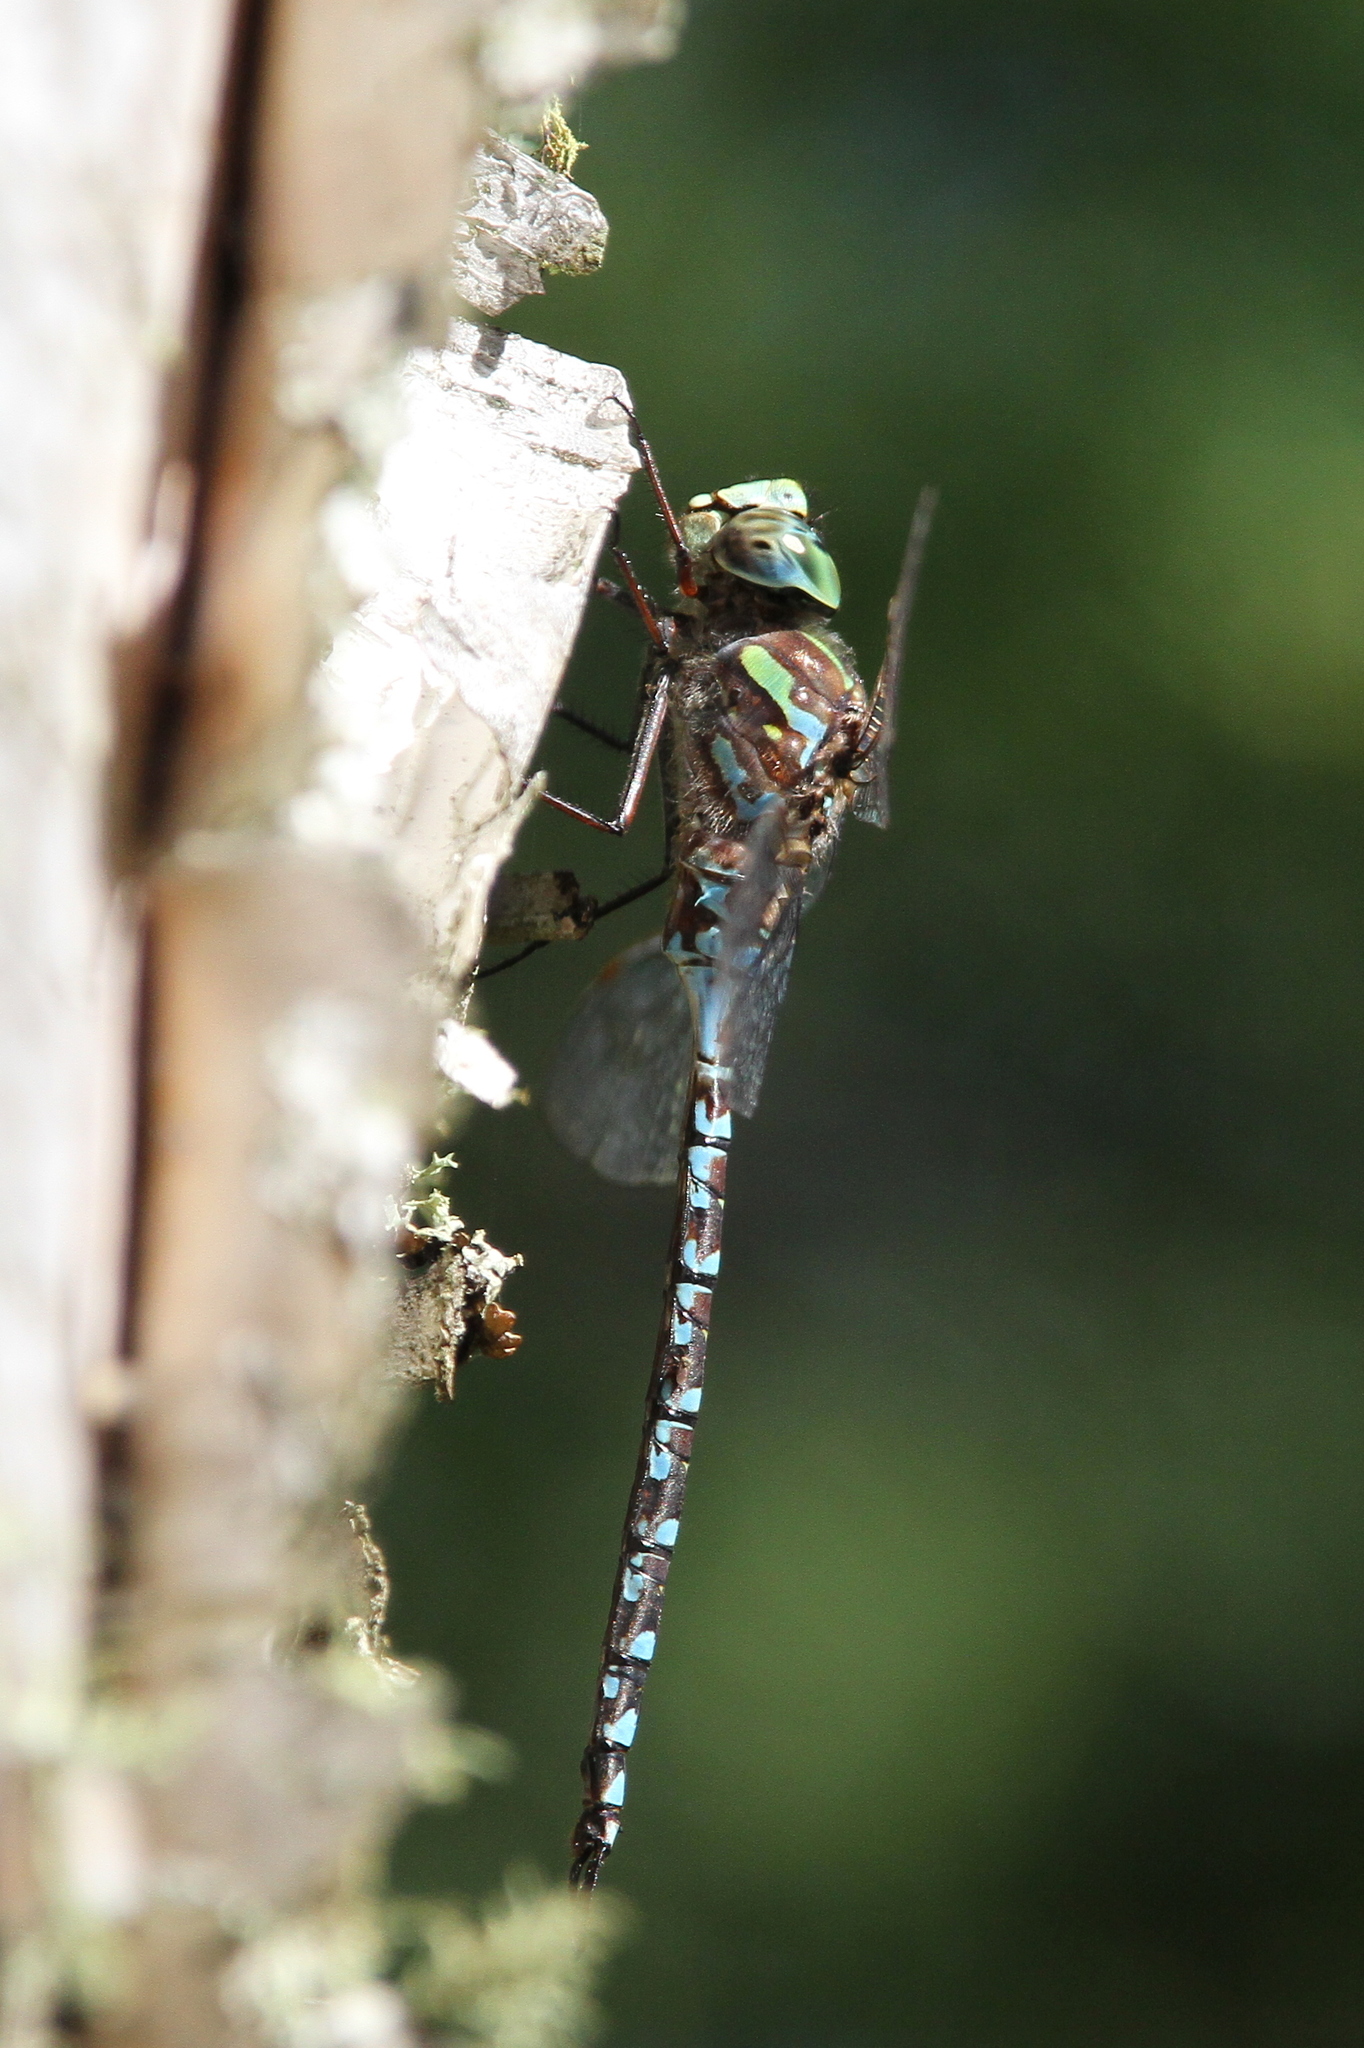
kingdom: Animalia
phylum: Arthropoda
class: Insecta
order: Odonata
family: Aeshnidae
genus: Aeshna
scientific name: Aeshna canadensis
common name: Canada darner
